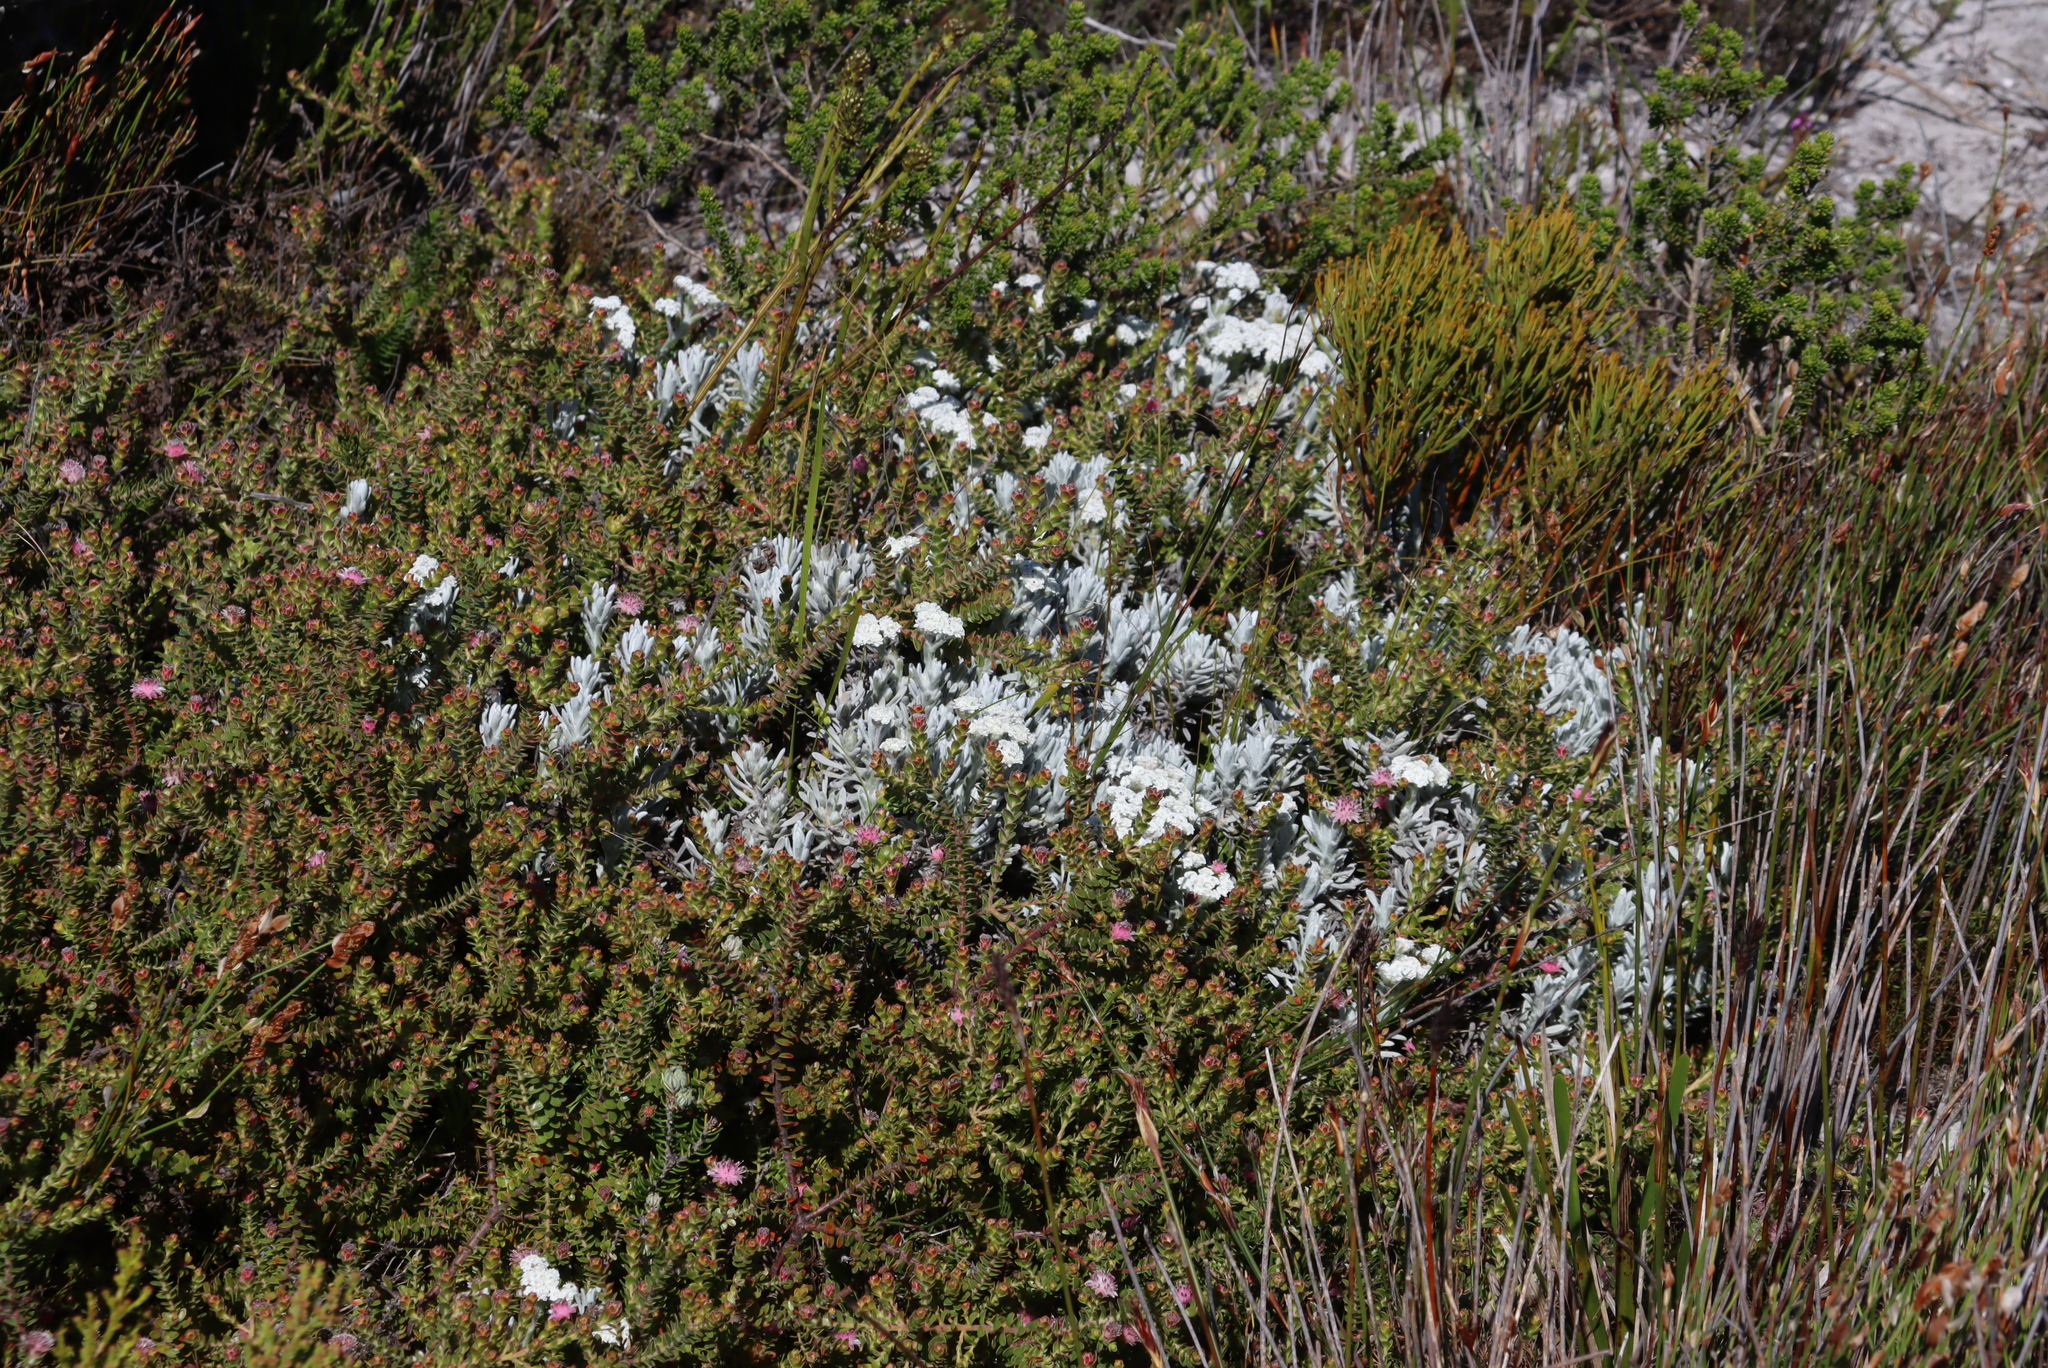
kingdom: Plantae
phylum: Tracheophyta
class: Magnoliopsida
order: Proteales
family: Proteaceae
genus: Diastella
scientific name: Diastella divaricata
